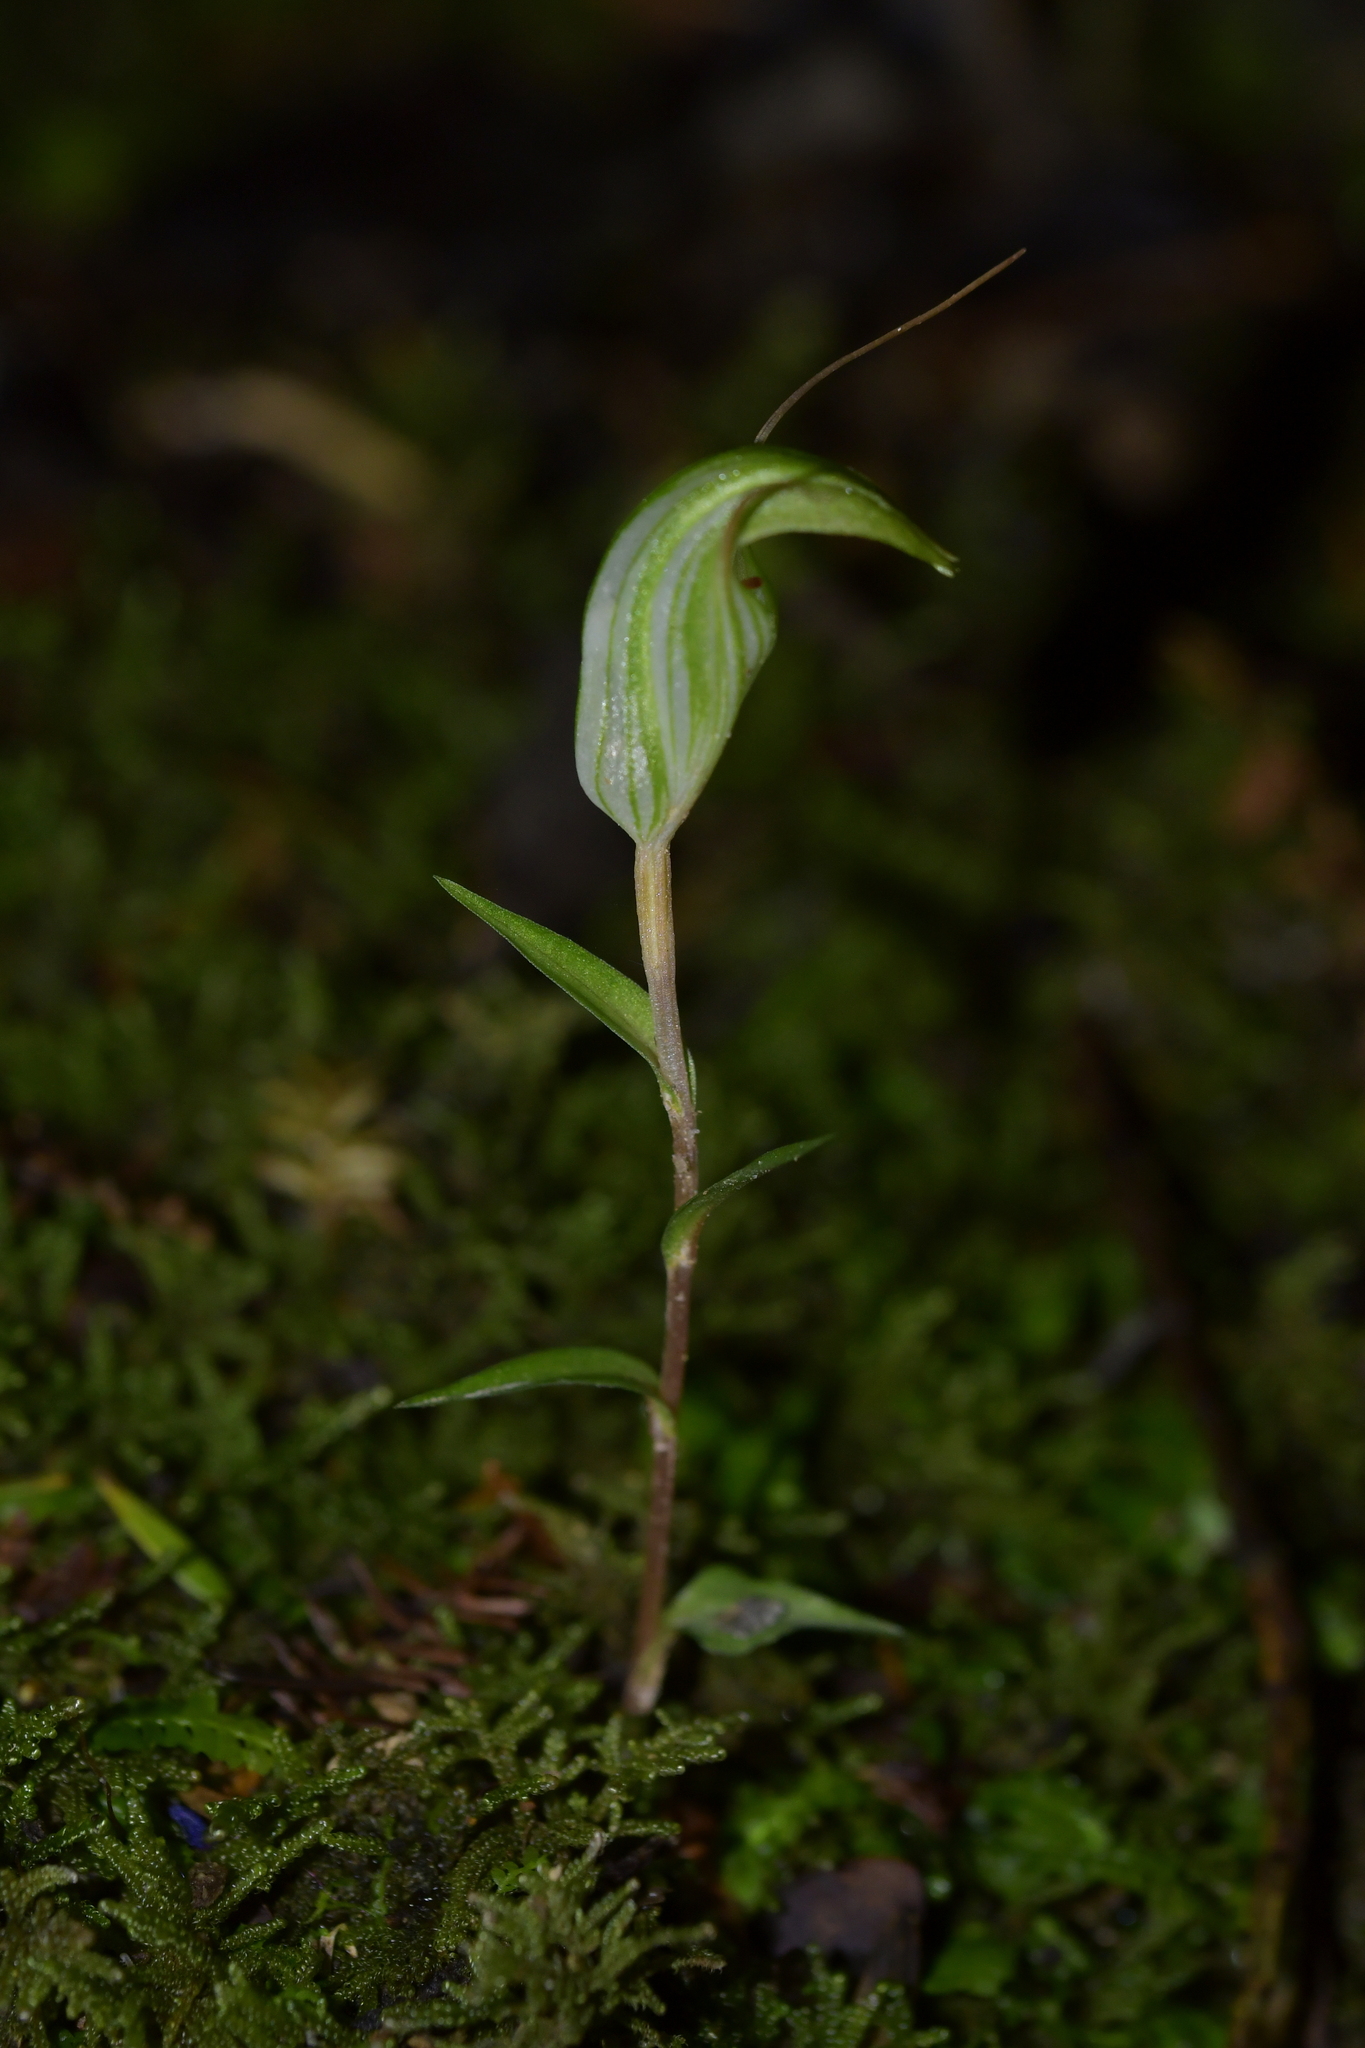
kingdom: Plantae
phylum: Tracheophyta
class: Liliopsida
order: Asparagales
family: Orchidaceae
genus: Pterostylis
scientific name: Pterostylis alobula
